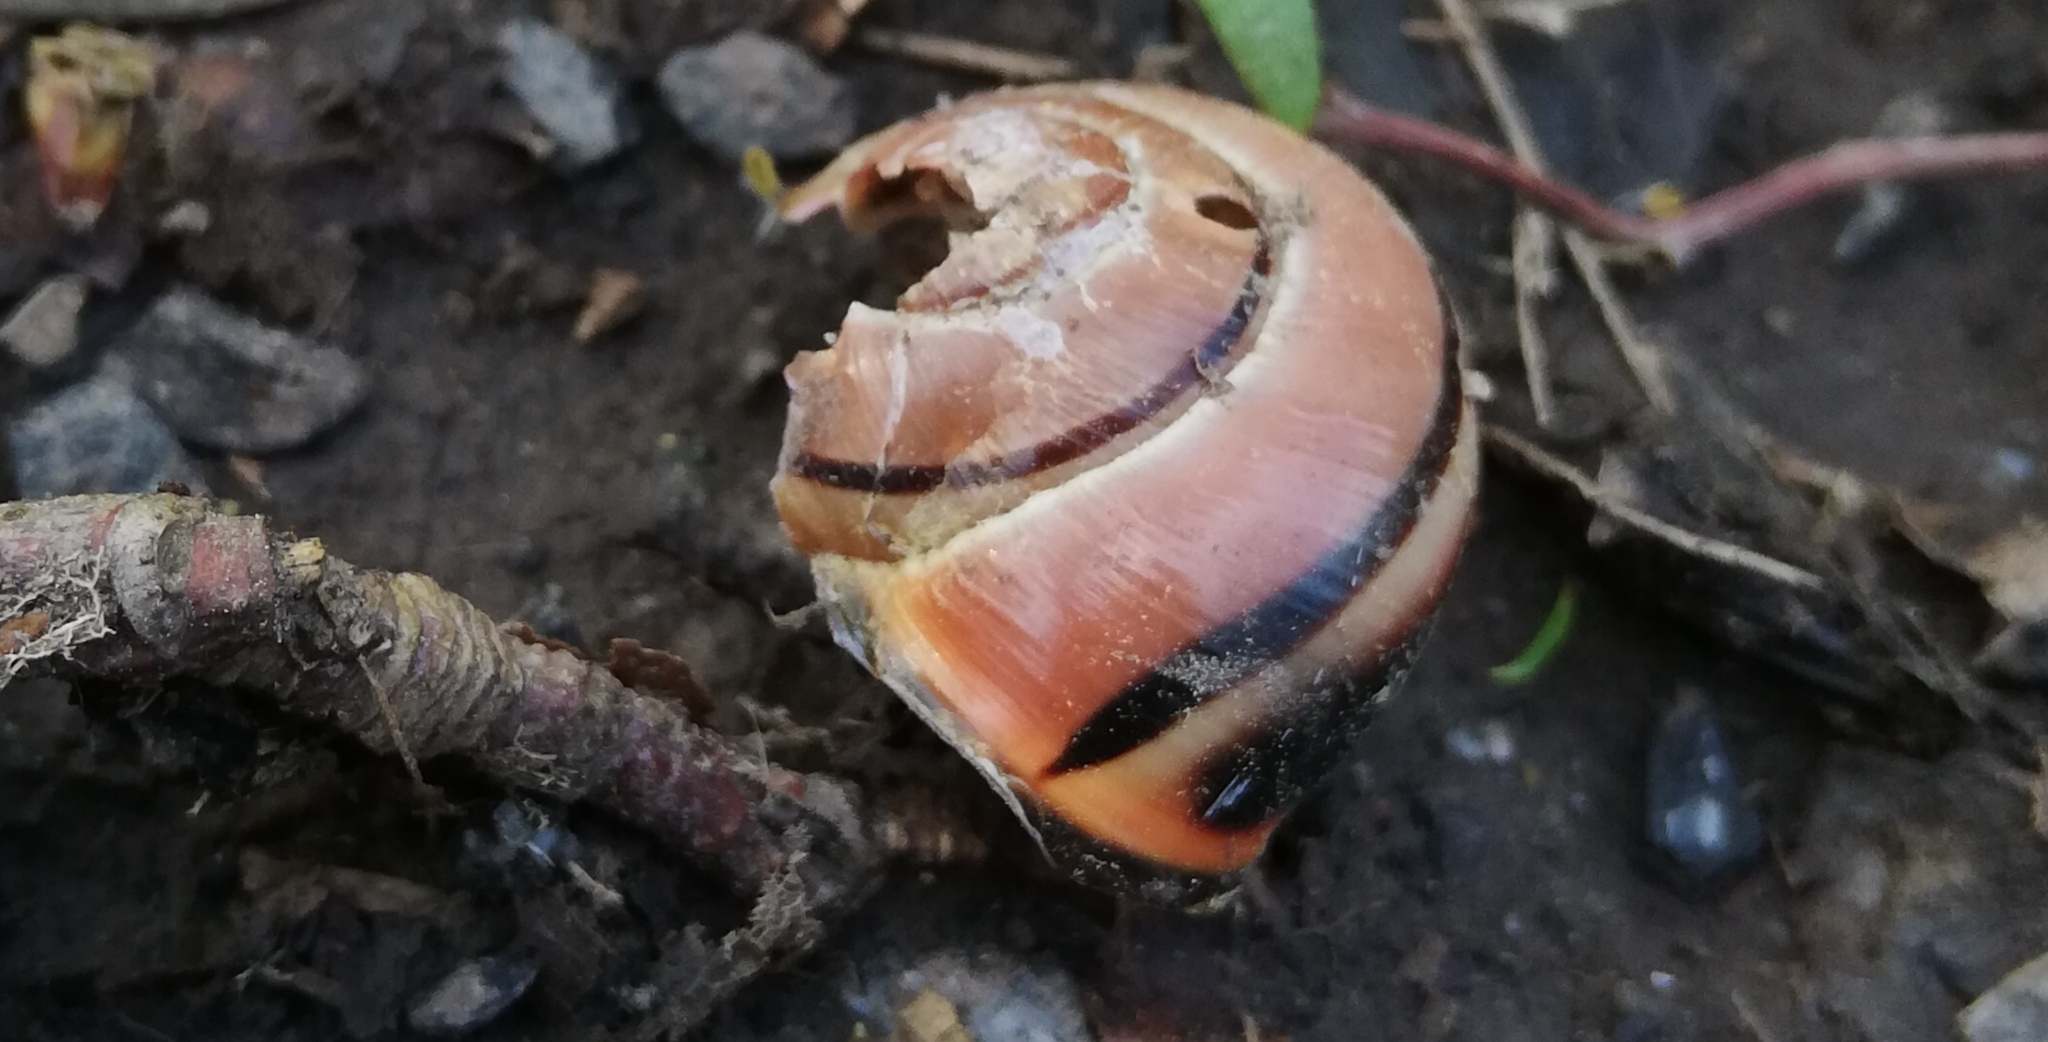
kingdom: Animalia
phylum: Mollusca
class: Gastropoda
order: Stylommatophora
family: Helicidae
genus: Cepaea
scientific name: Cepaea nemoralis
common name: Grovesnail
